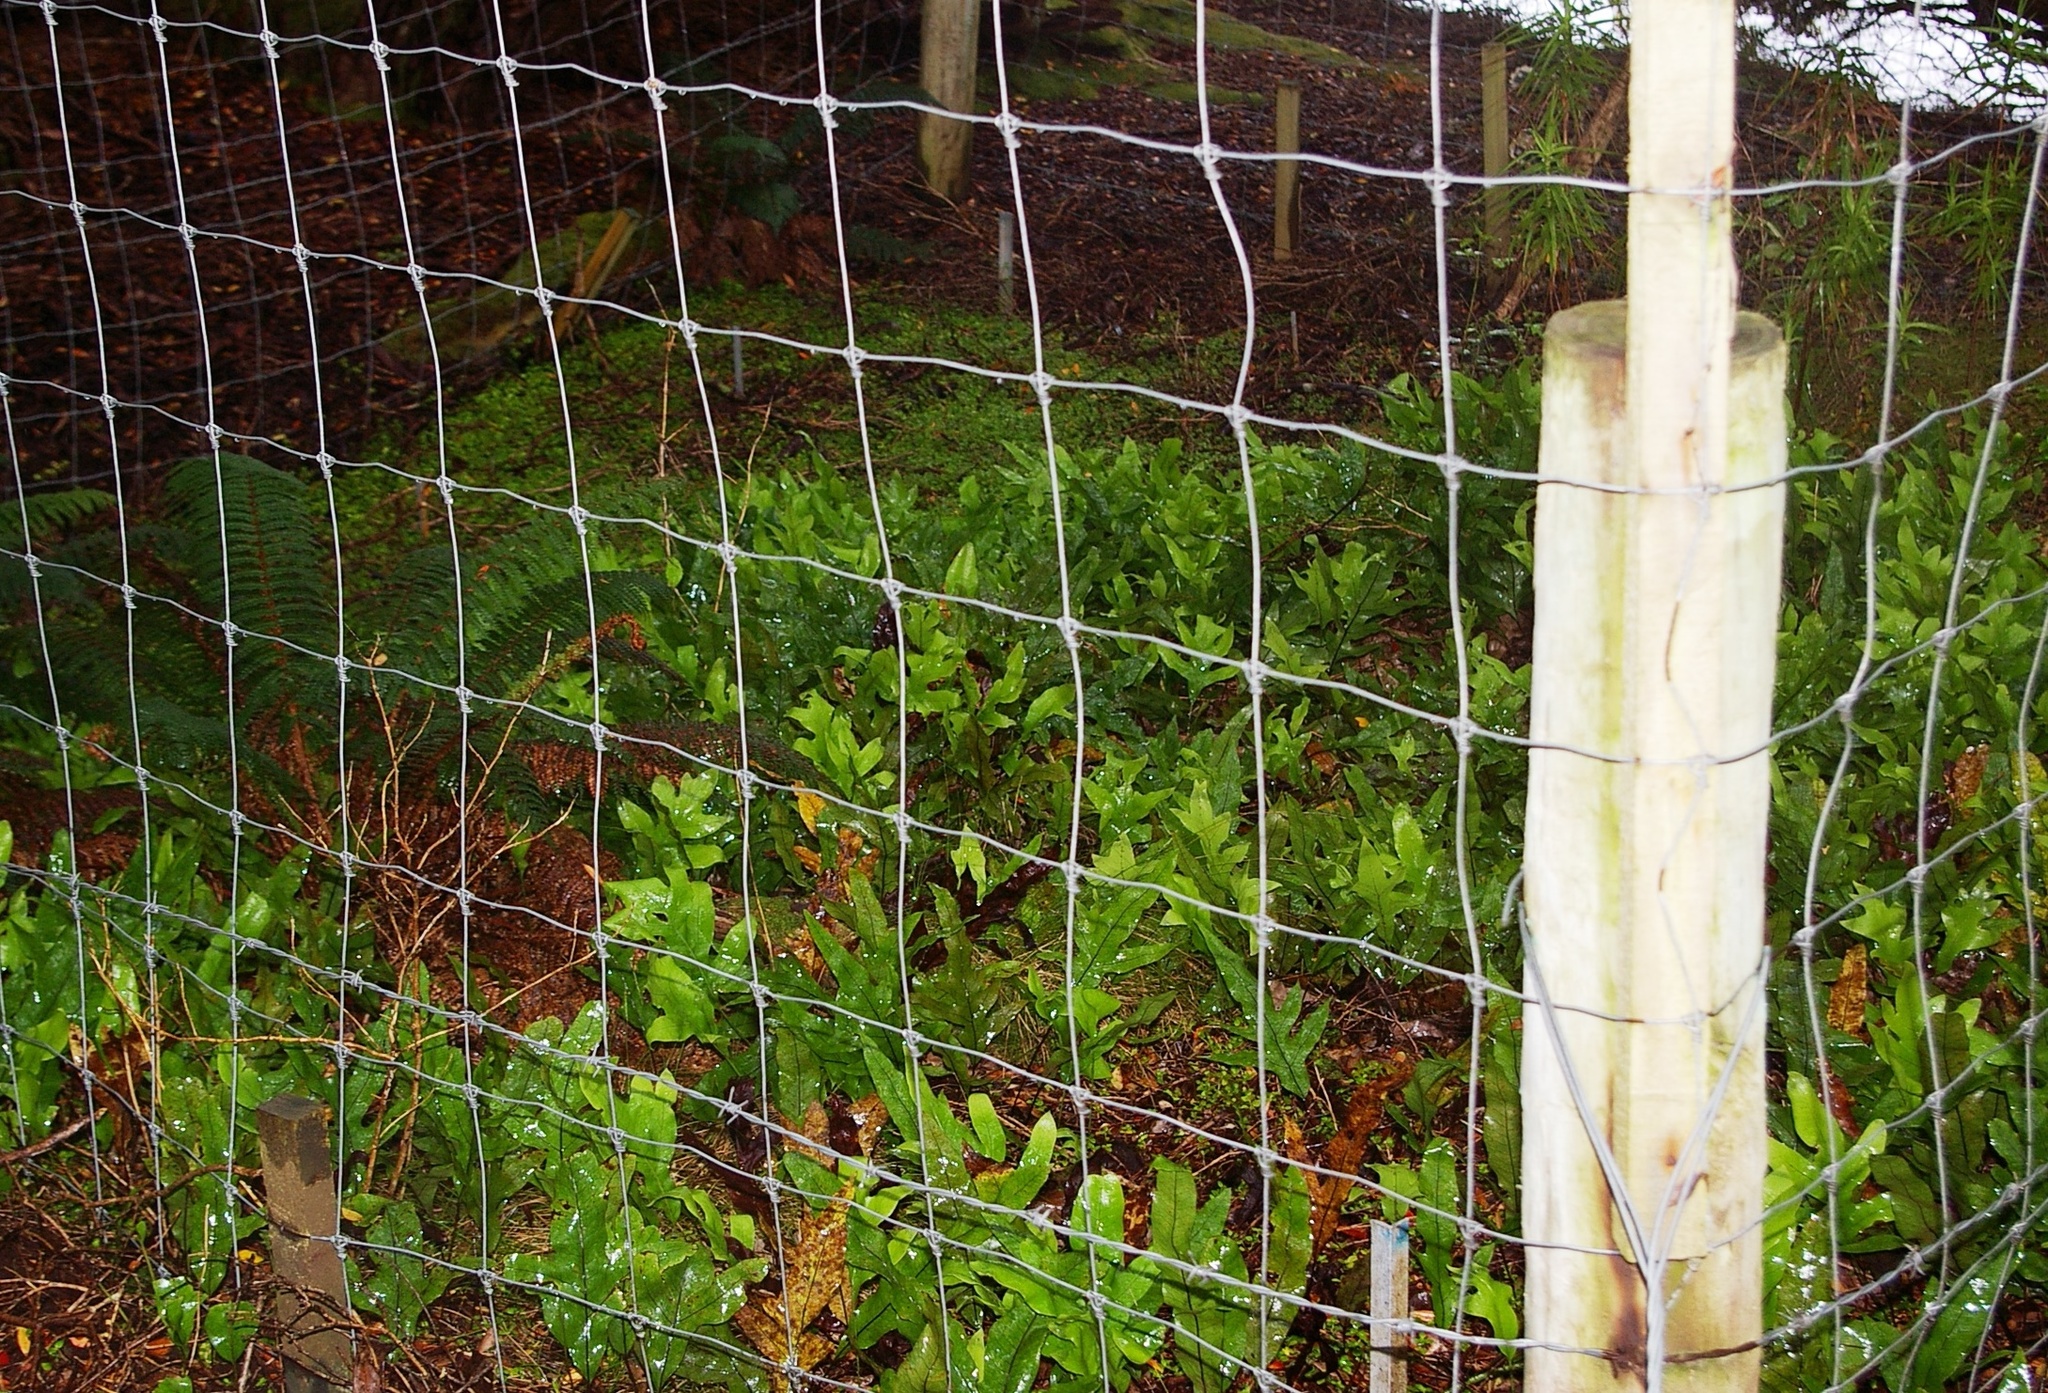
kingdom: Plantae
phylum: Tracheophyta
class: Polypodiopsida
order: Polypodiales
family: Polypodiaceae
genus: Lecanopteris
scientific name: Lecanopteris pustulata
